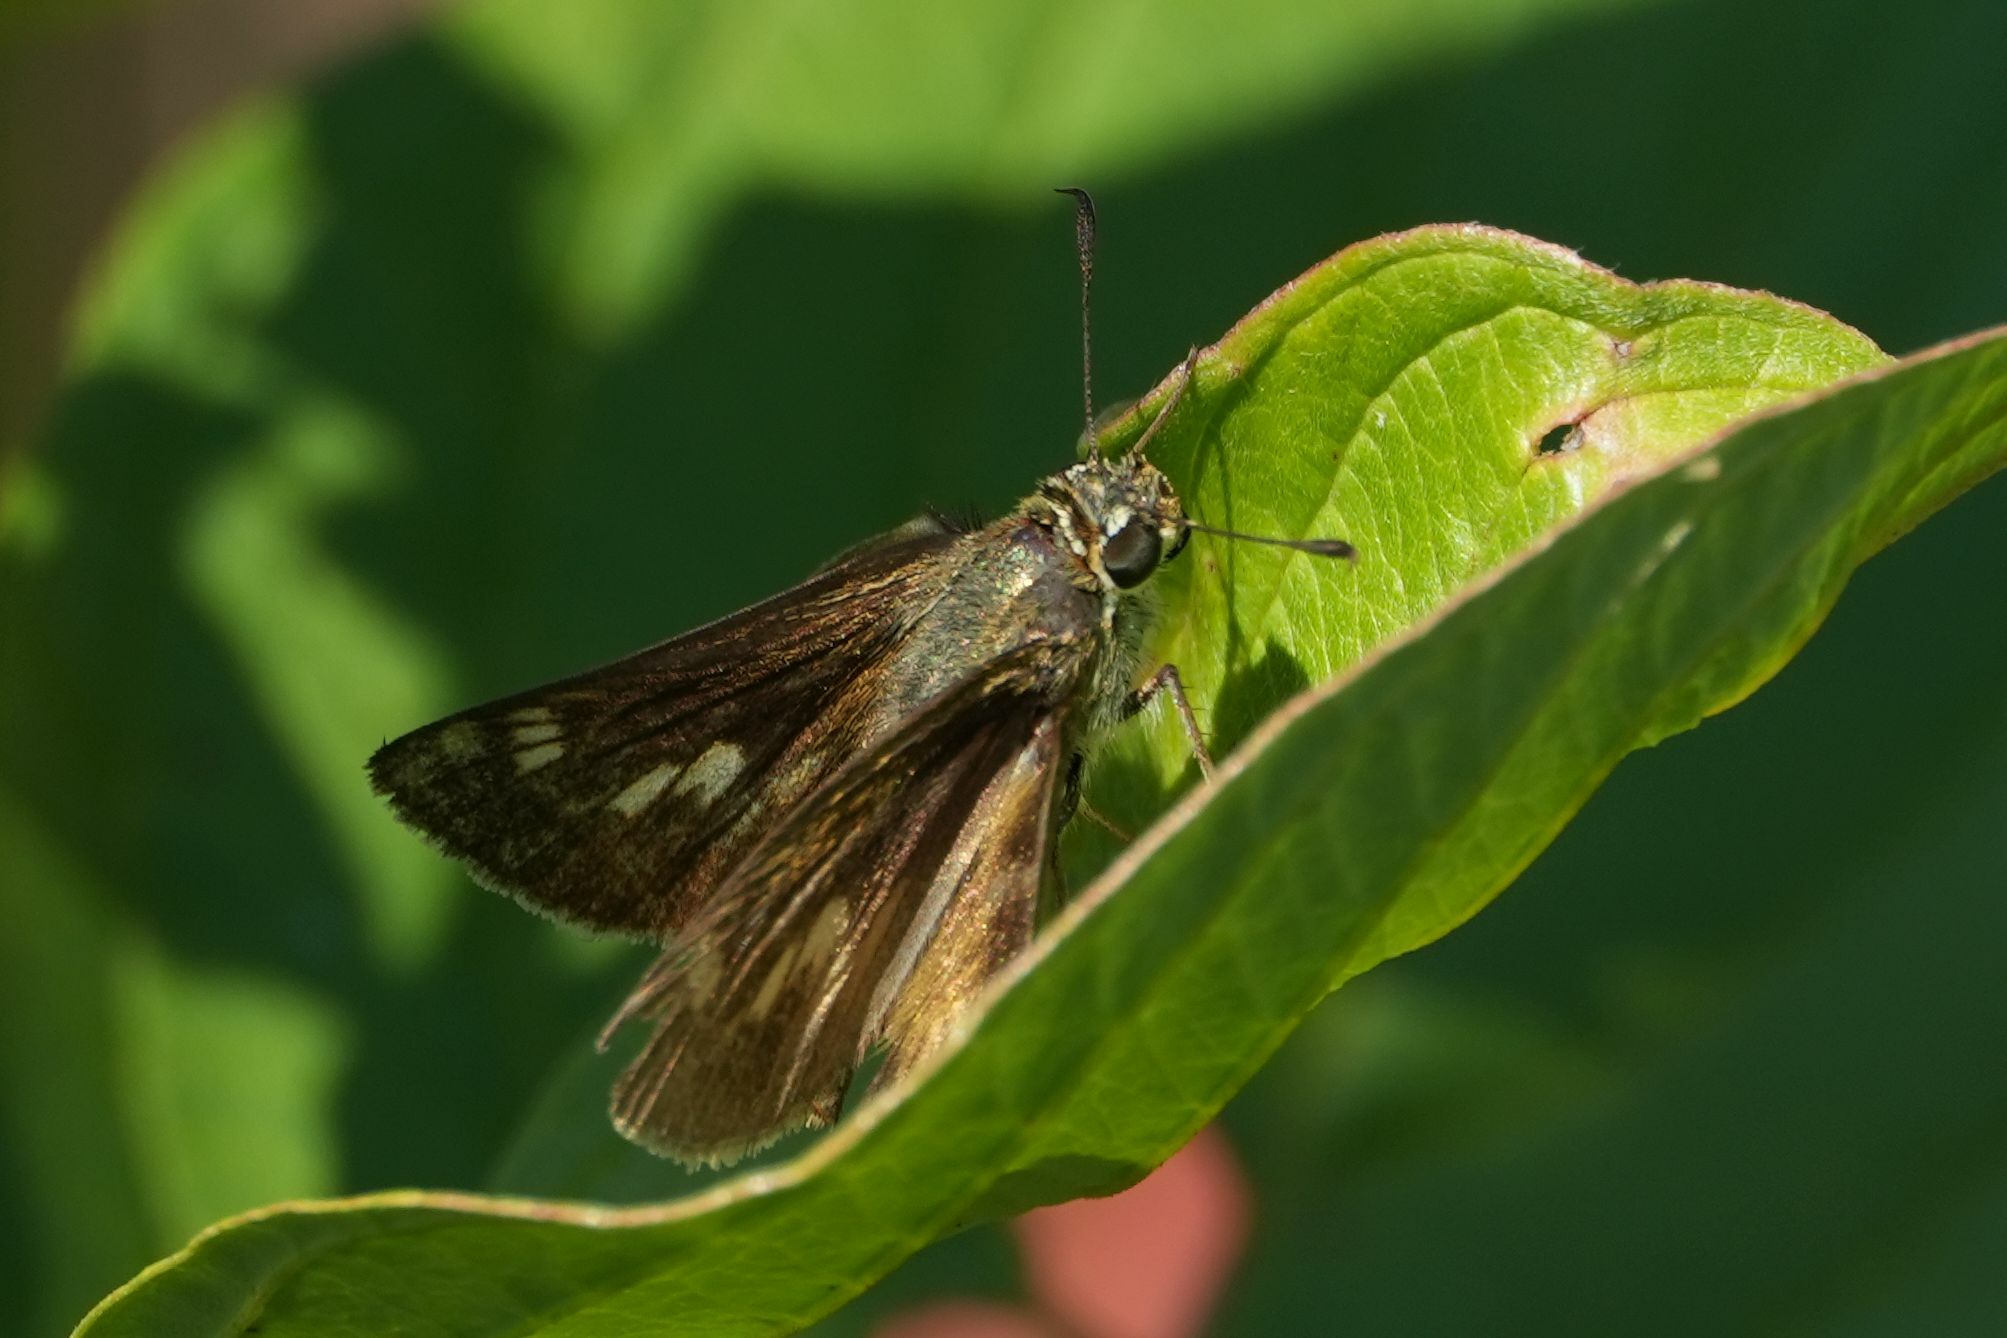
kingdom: Animalia
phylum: Arthropoda
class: Insecta
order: Lepidoptera
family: Hesperiidae
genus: Polites
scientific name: Polites egeremet
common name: Northern broken-dash
